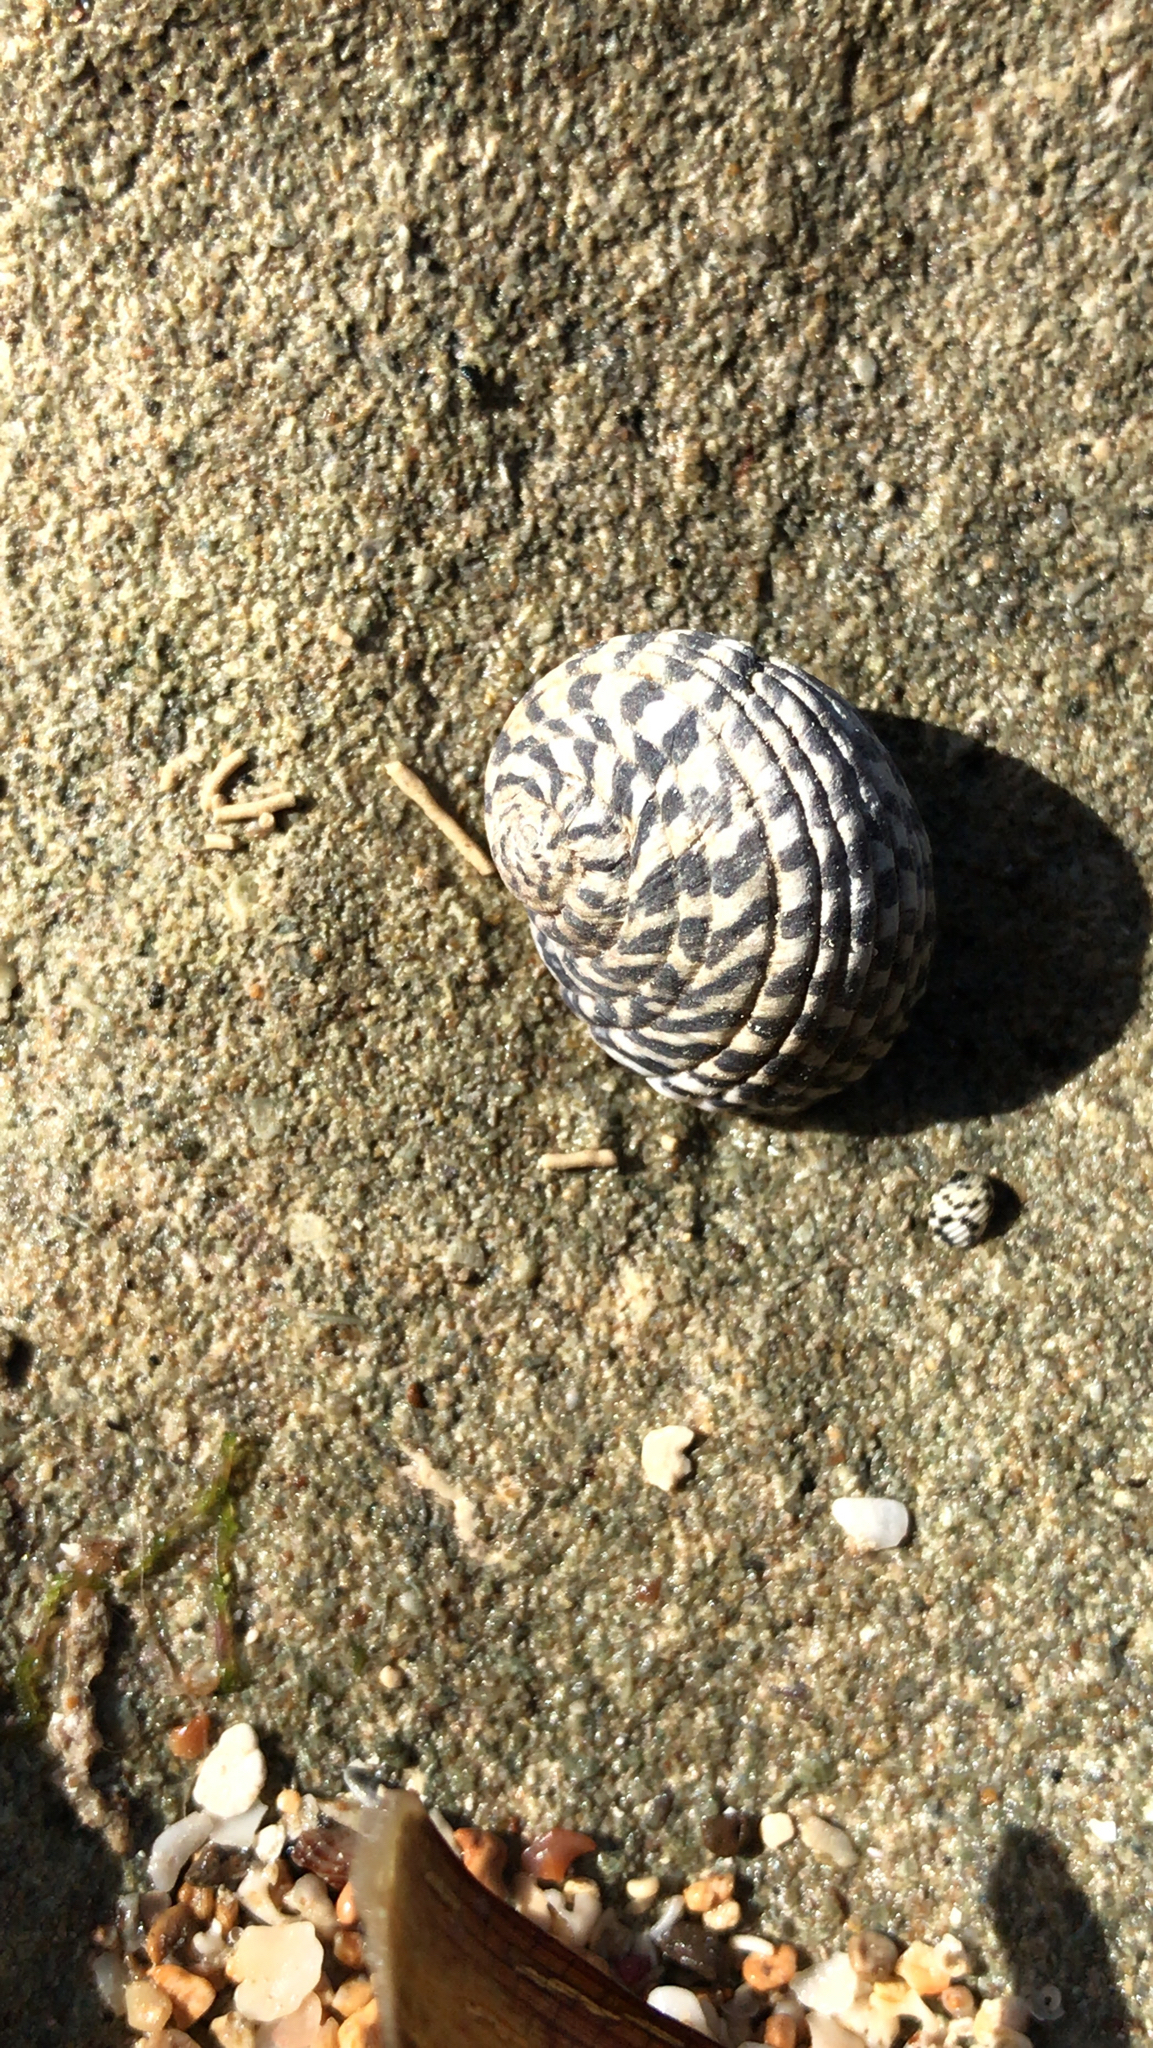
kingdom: Animalia
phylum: Mollusca
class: Gastropoda
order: Cycloneritida
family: Neritidae
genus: Nerita
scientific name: Nerita tessellata
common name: Checkered nerite
